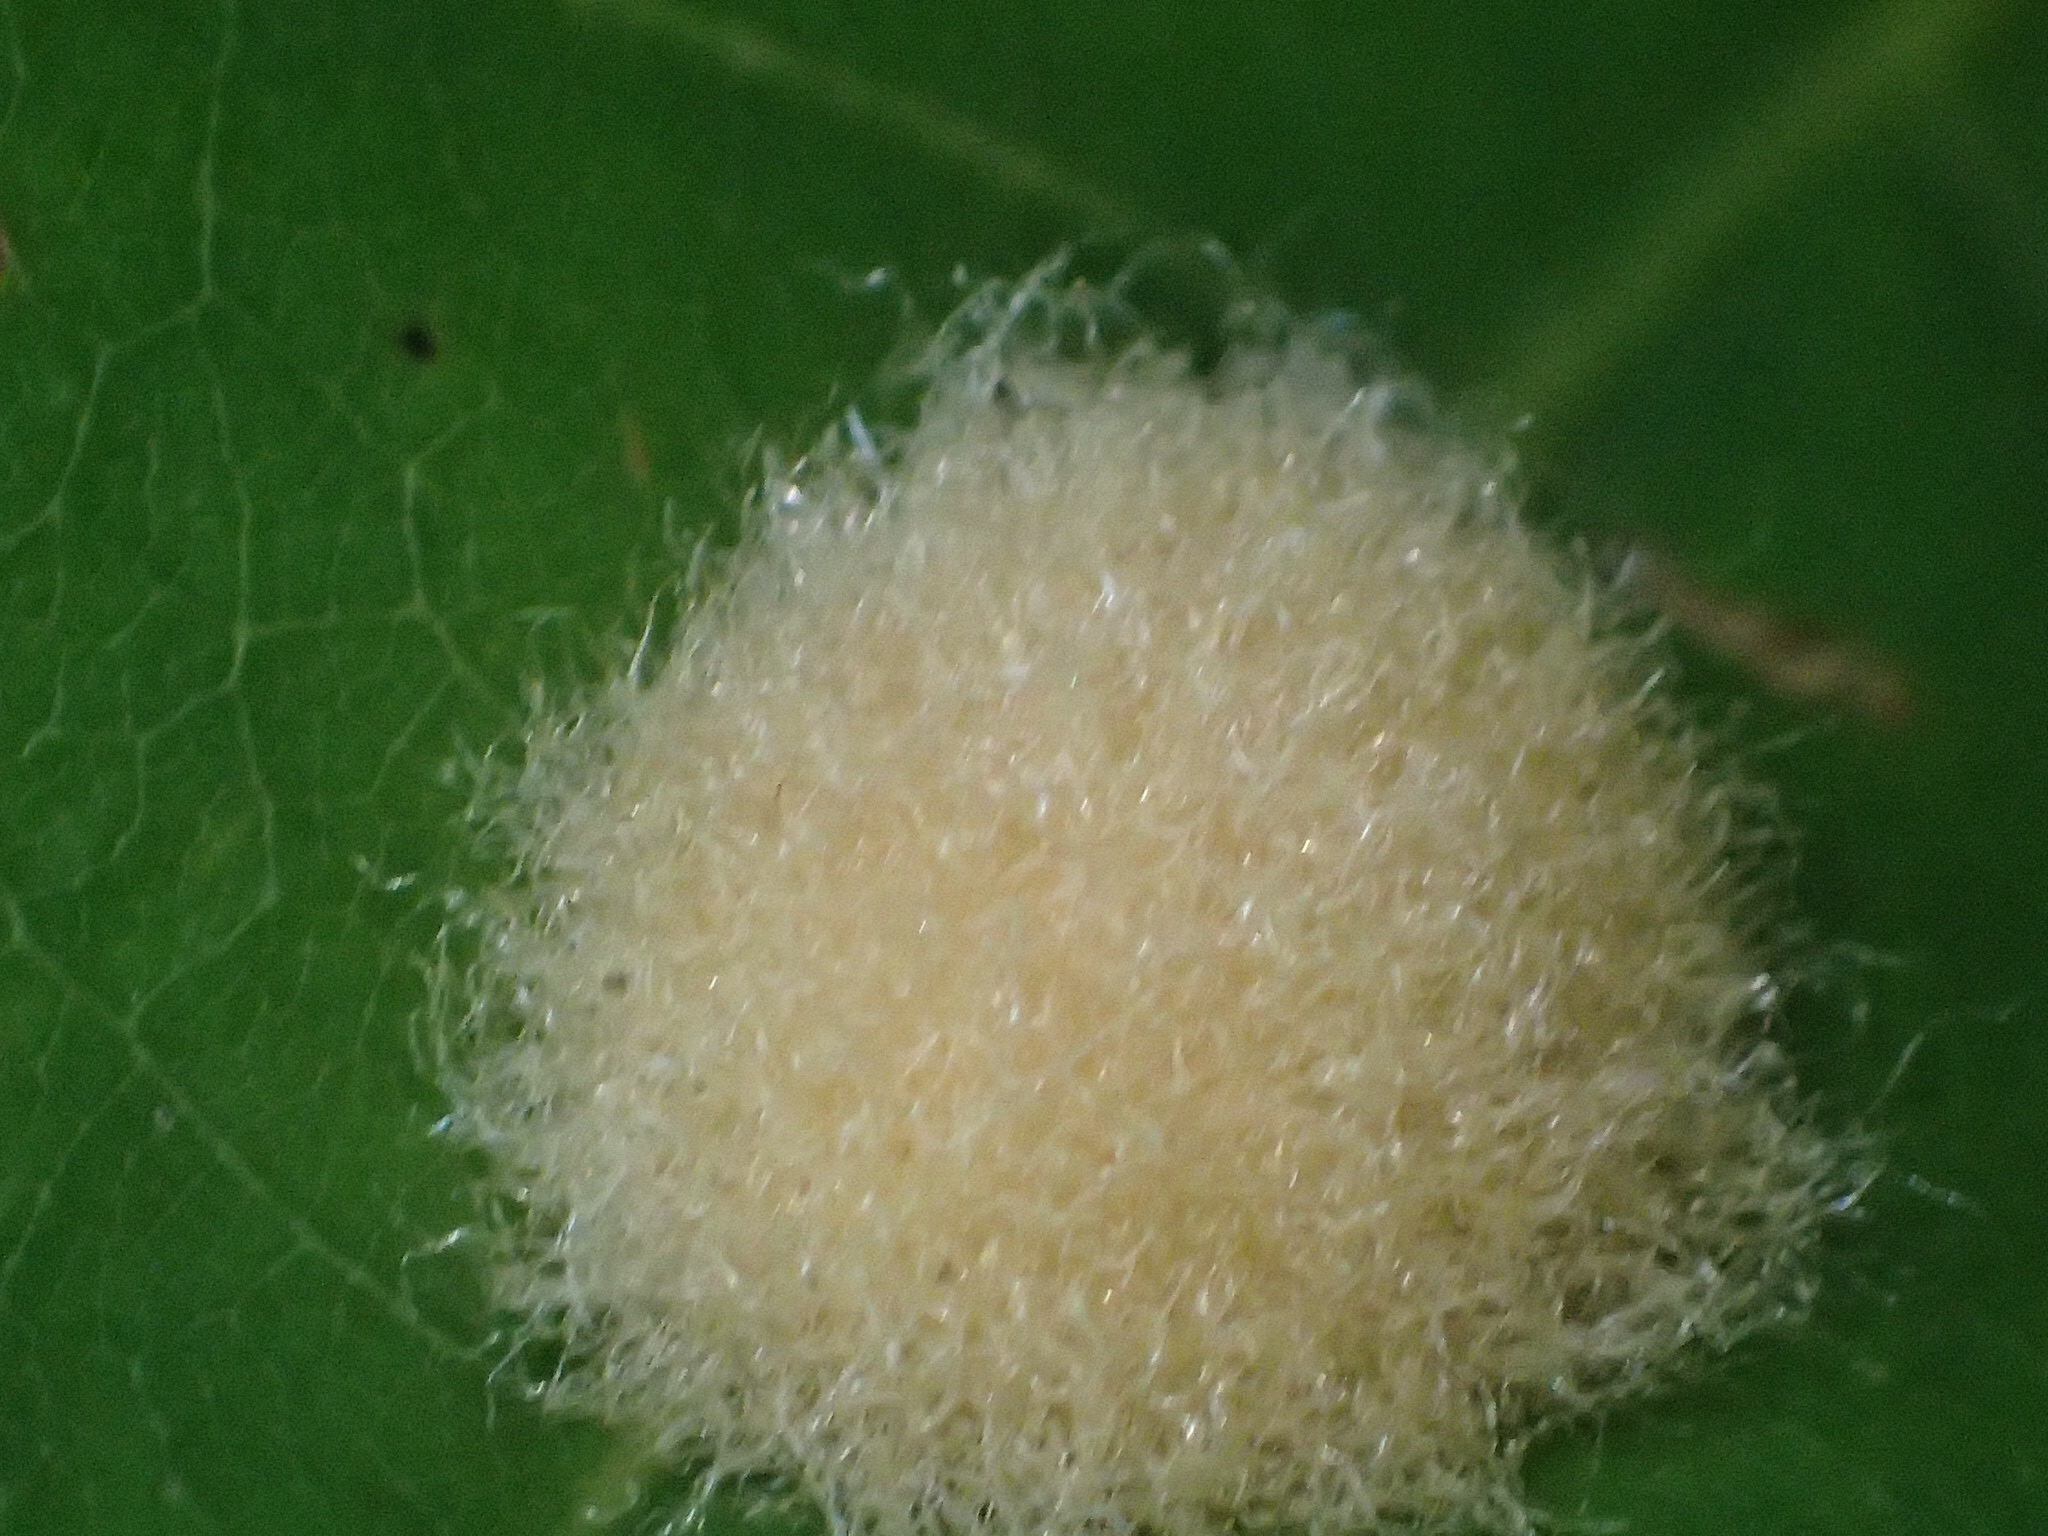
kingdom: Animalia
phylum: Arthropoda
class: Insecta
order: Hymenoptera
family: Cynipidae
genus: Callirhytis
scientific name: Callirhytis
